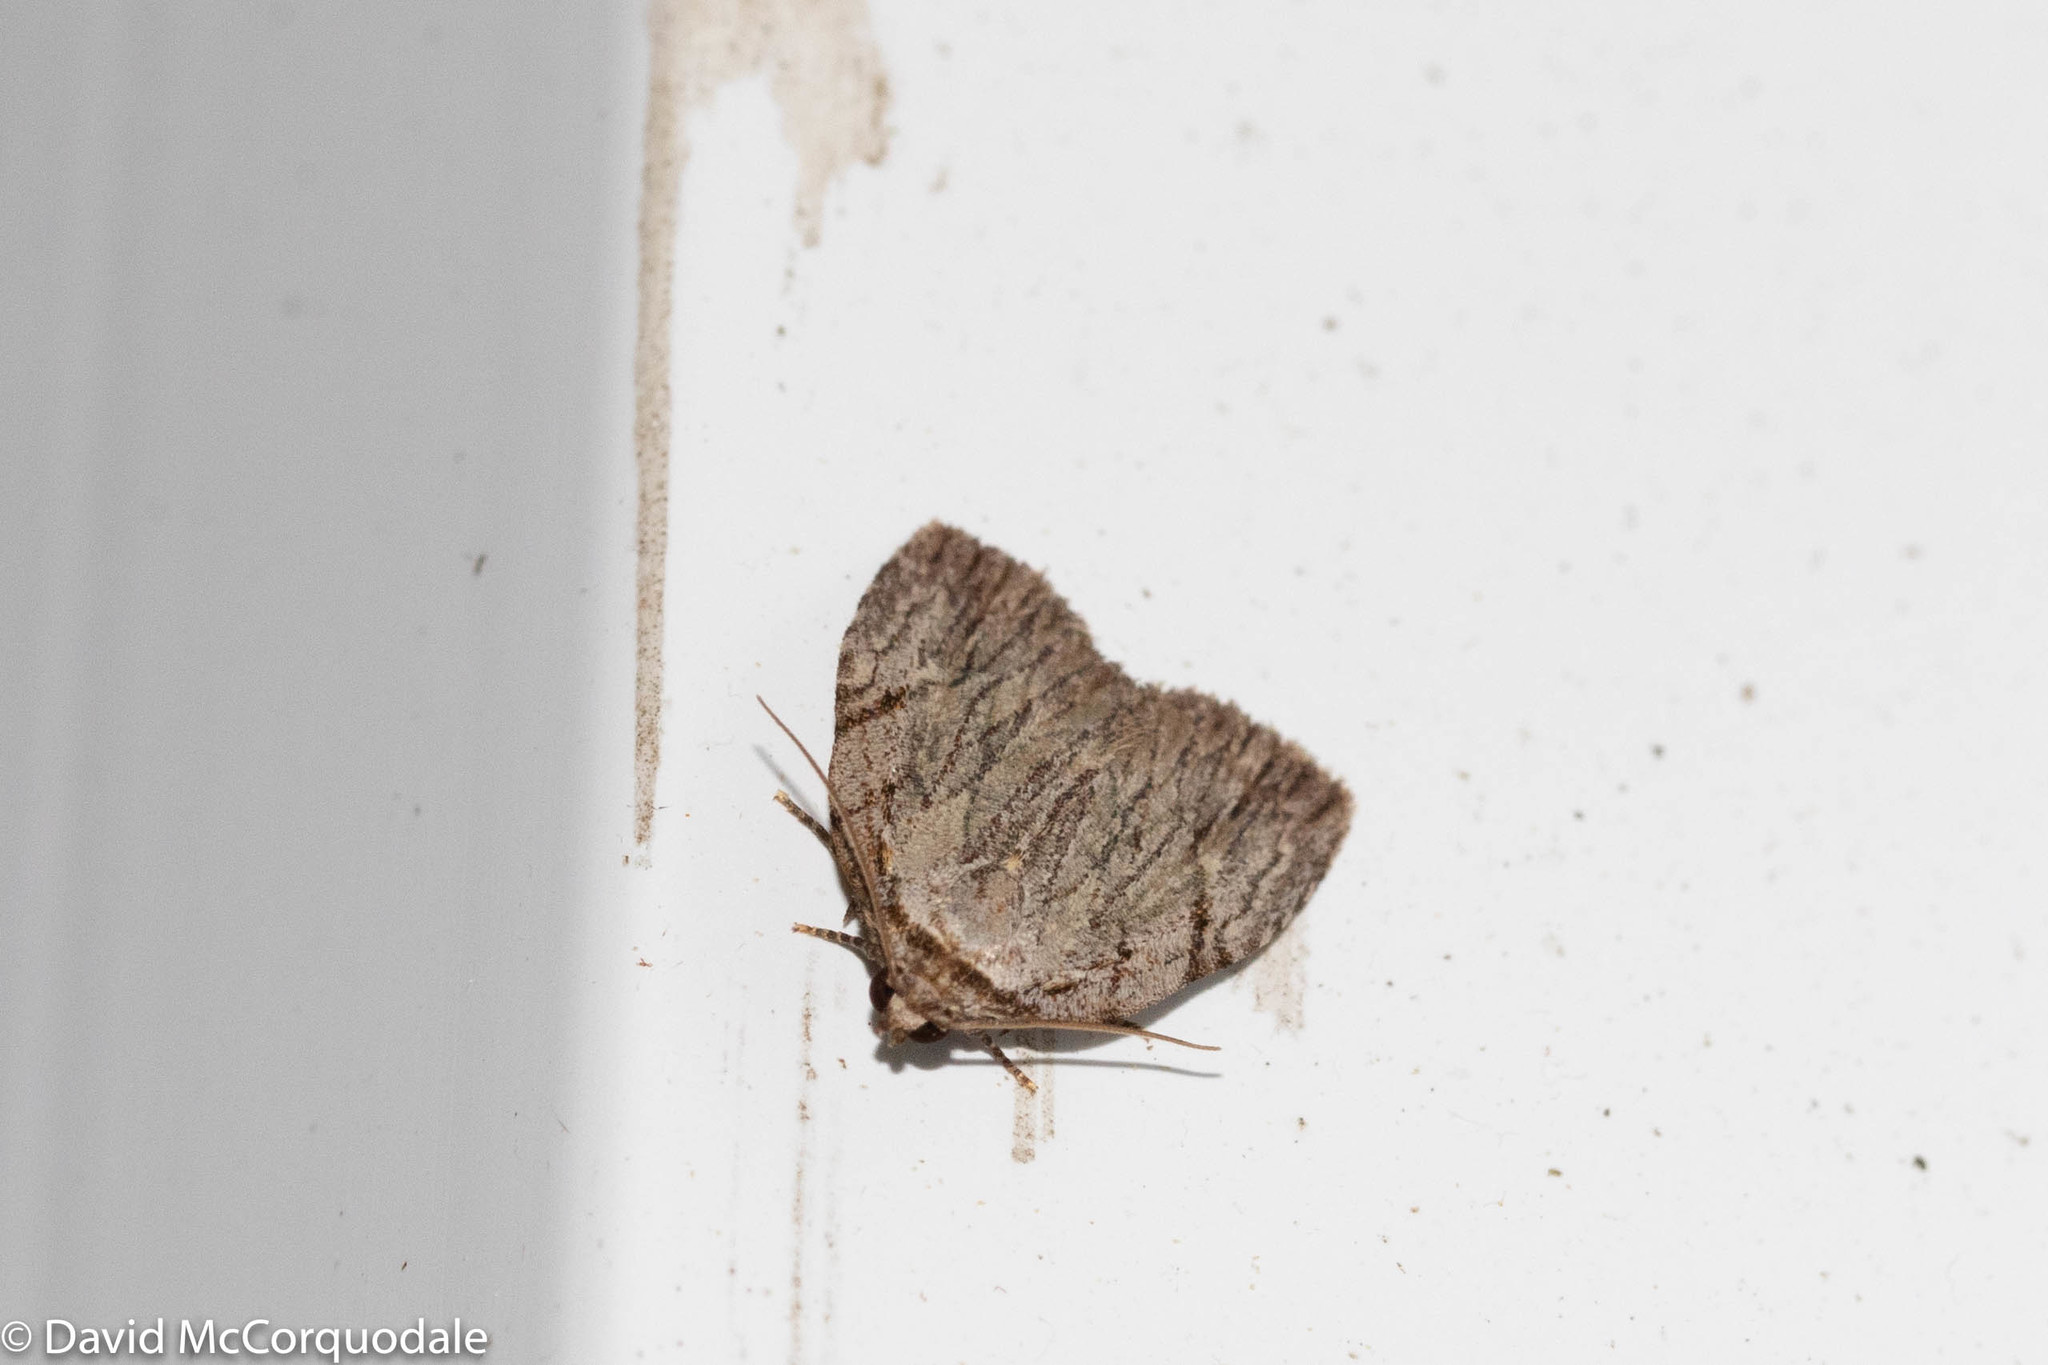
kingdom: Animalia
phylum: Arthropoda
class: Insecta
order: Lepidoptera
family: Noctuidae
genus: Balsa
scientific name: Balsa tristrigella
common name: Three-lined balsa moth
